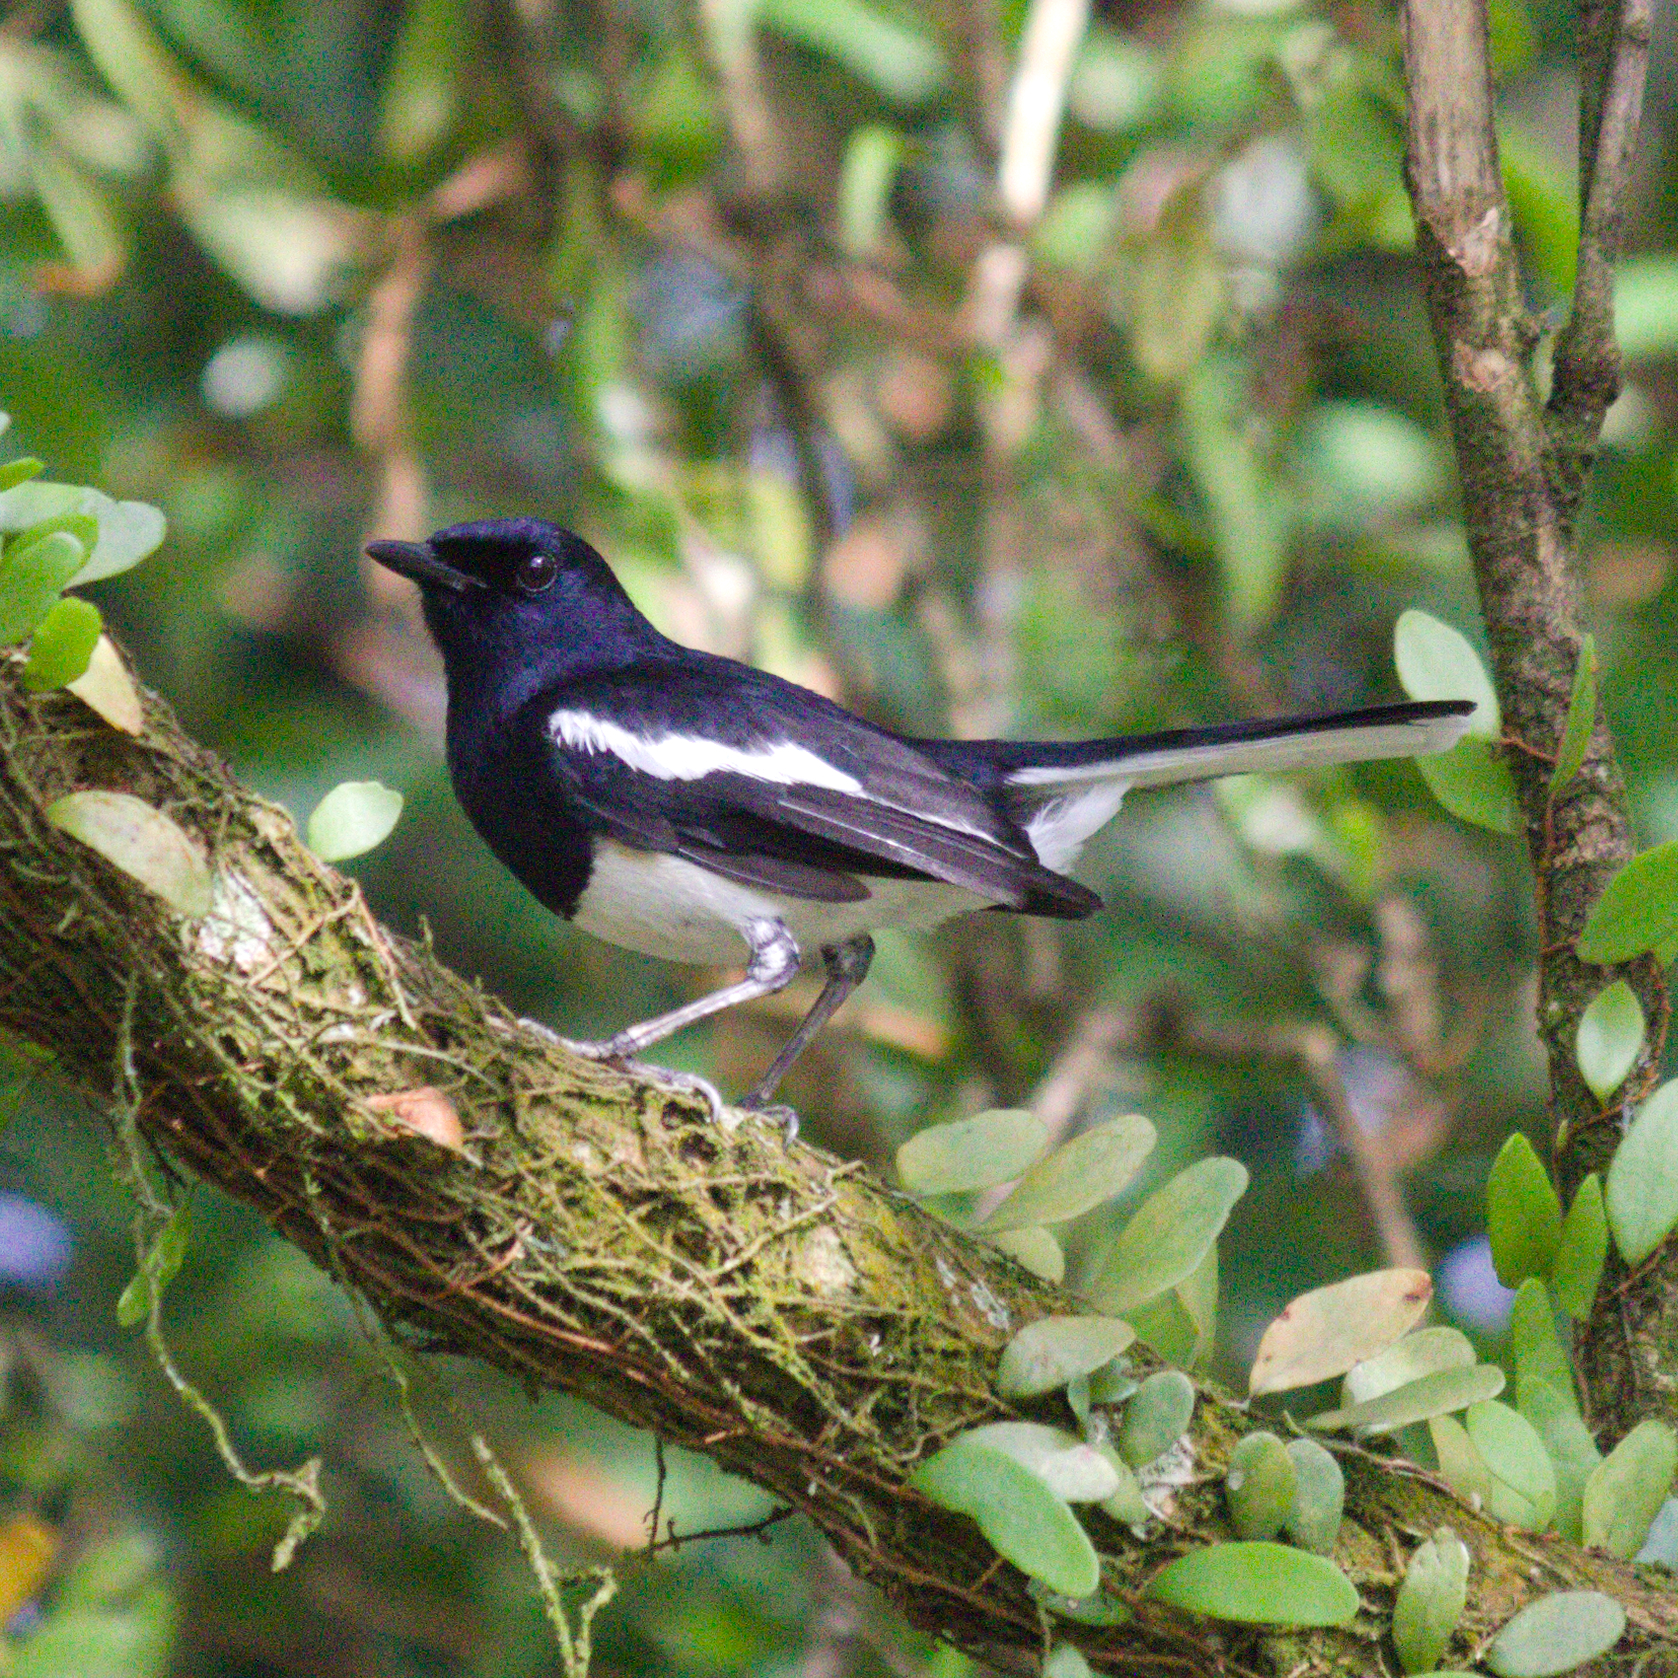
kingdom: Animalia
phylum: Chordata
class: Aves
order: Passeriformes
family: Muscicapidae
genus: Copsychus
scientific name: Copsychus saularis
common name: Oriental magpie-robin
